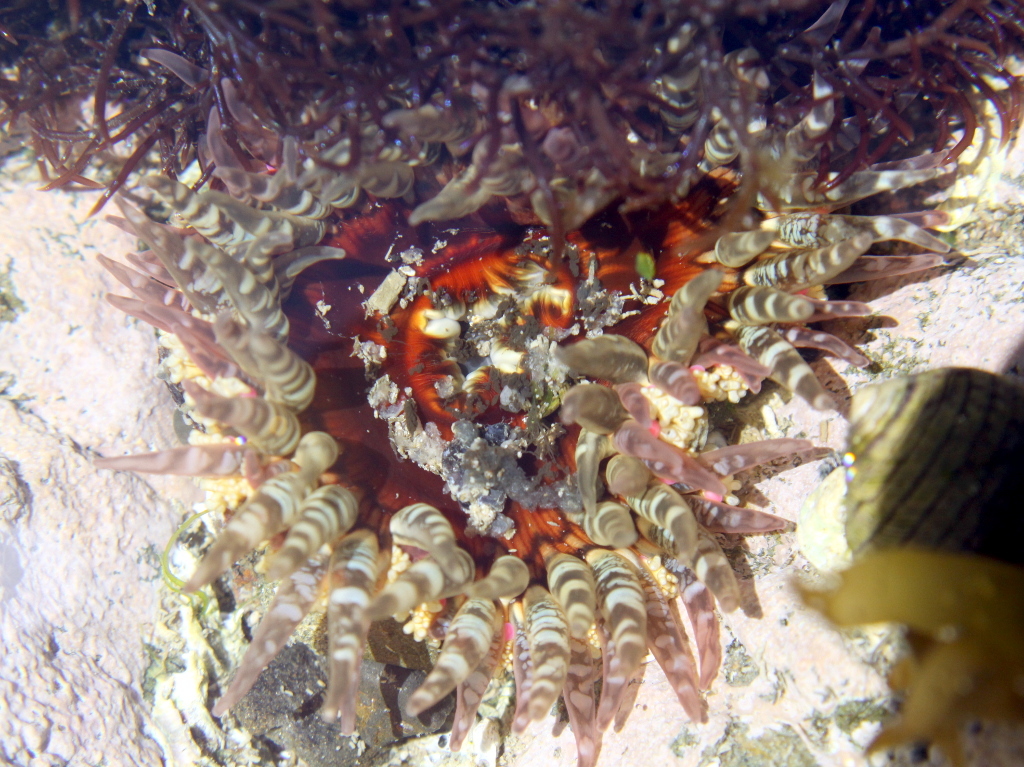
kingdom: Animalia
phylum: Cnidaria
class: Anthozoa
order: Actiniaria
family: Actiniidae
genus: Oulactis
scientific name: Oulactis muscosa
